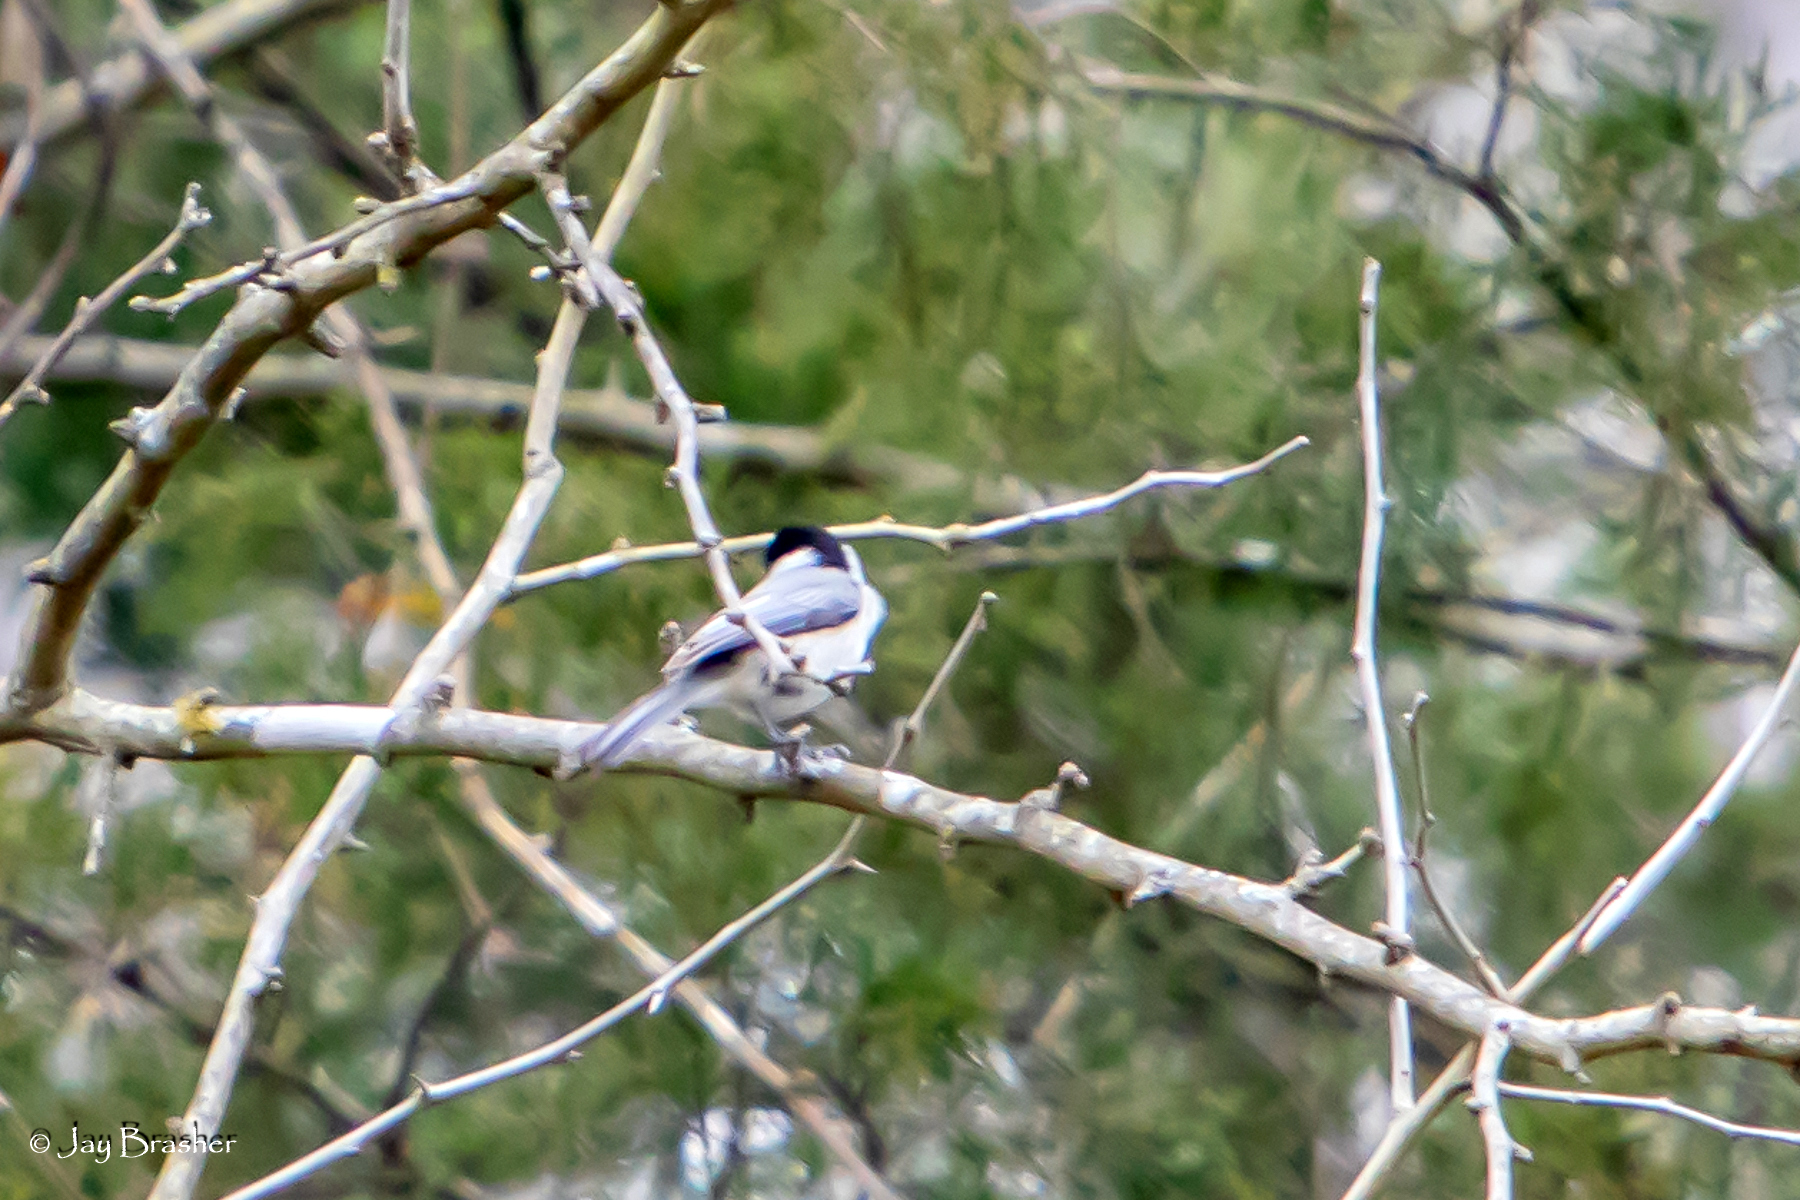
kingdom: Animalia
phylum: Chordata
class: Aves
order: Passeriformes
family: Paridae
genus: Poecile
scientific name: Poecile carolinensis
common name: Carolina chickadee
